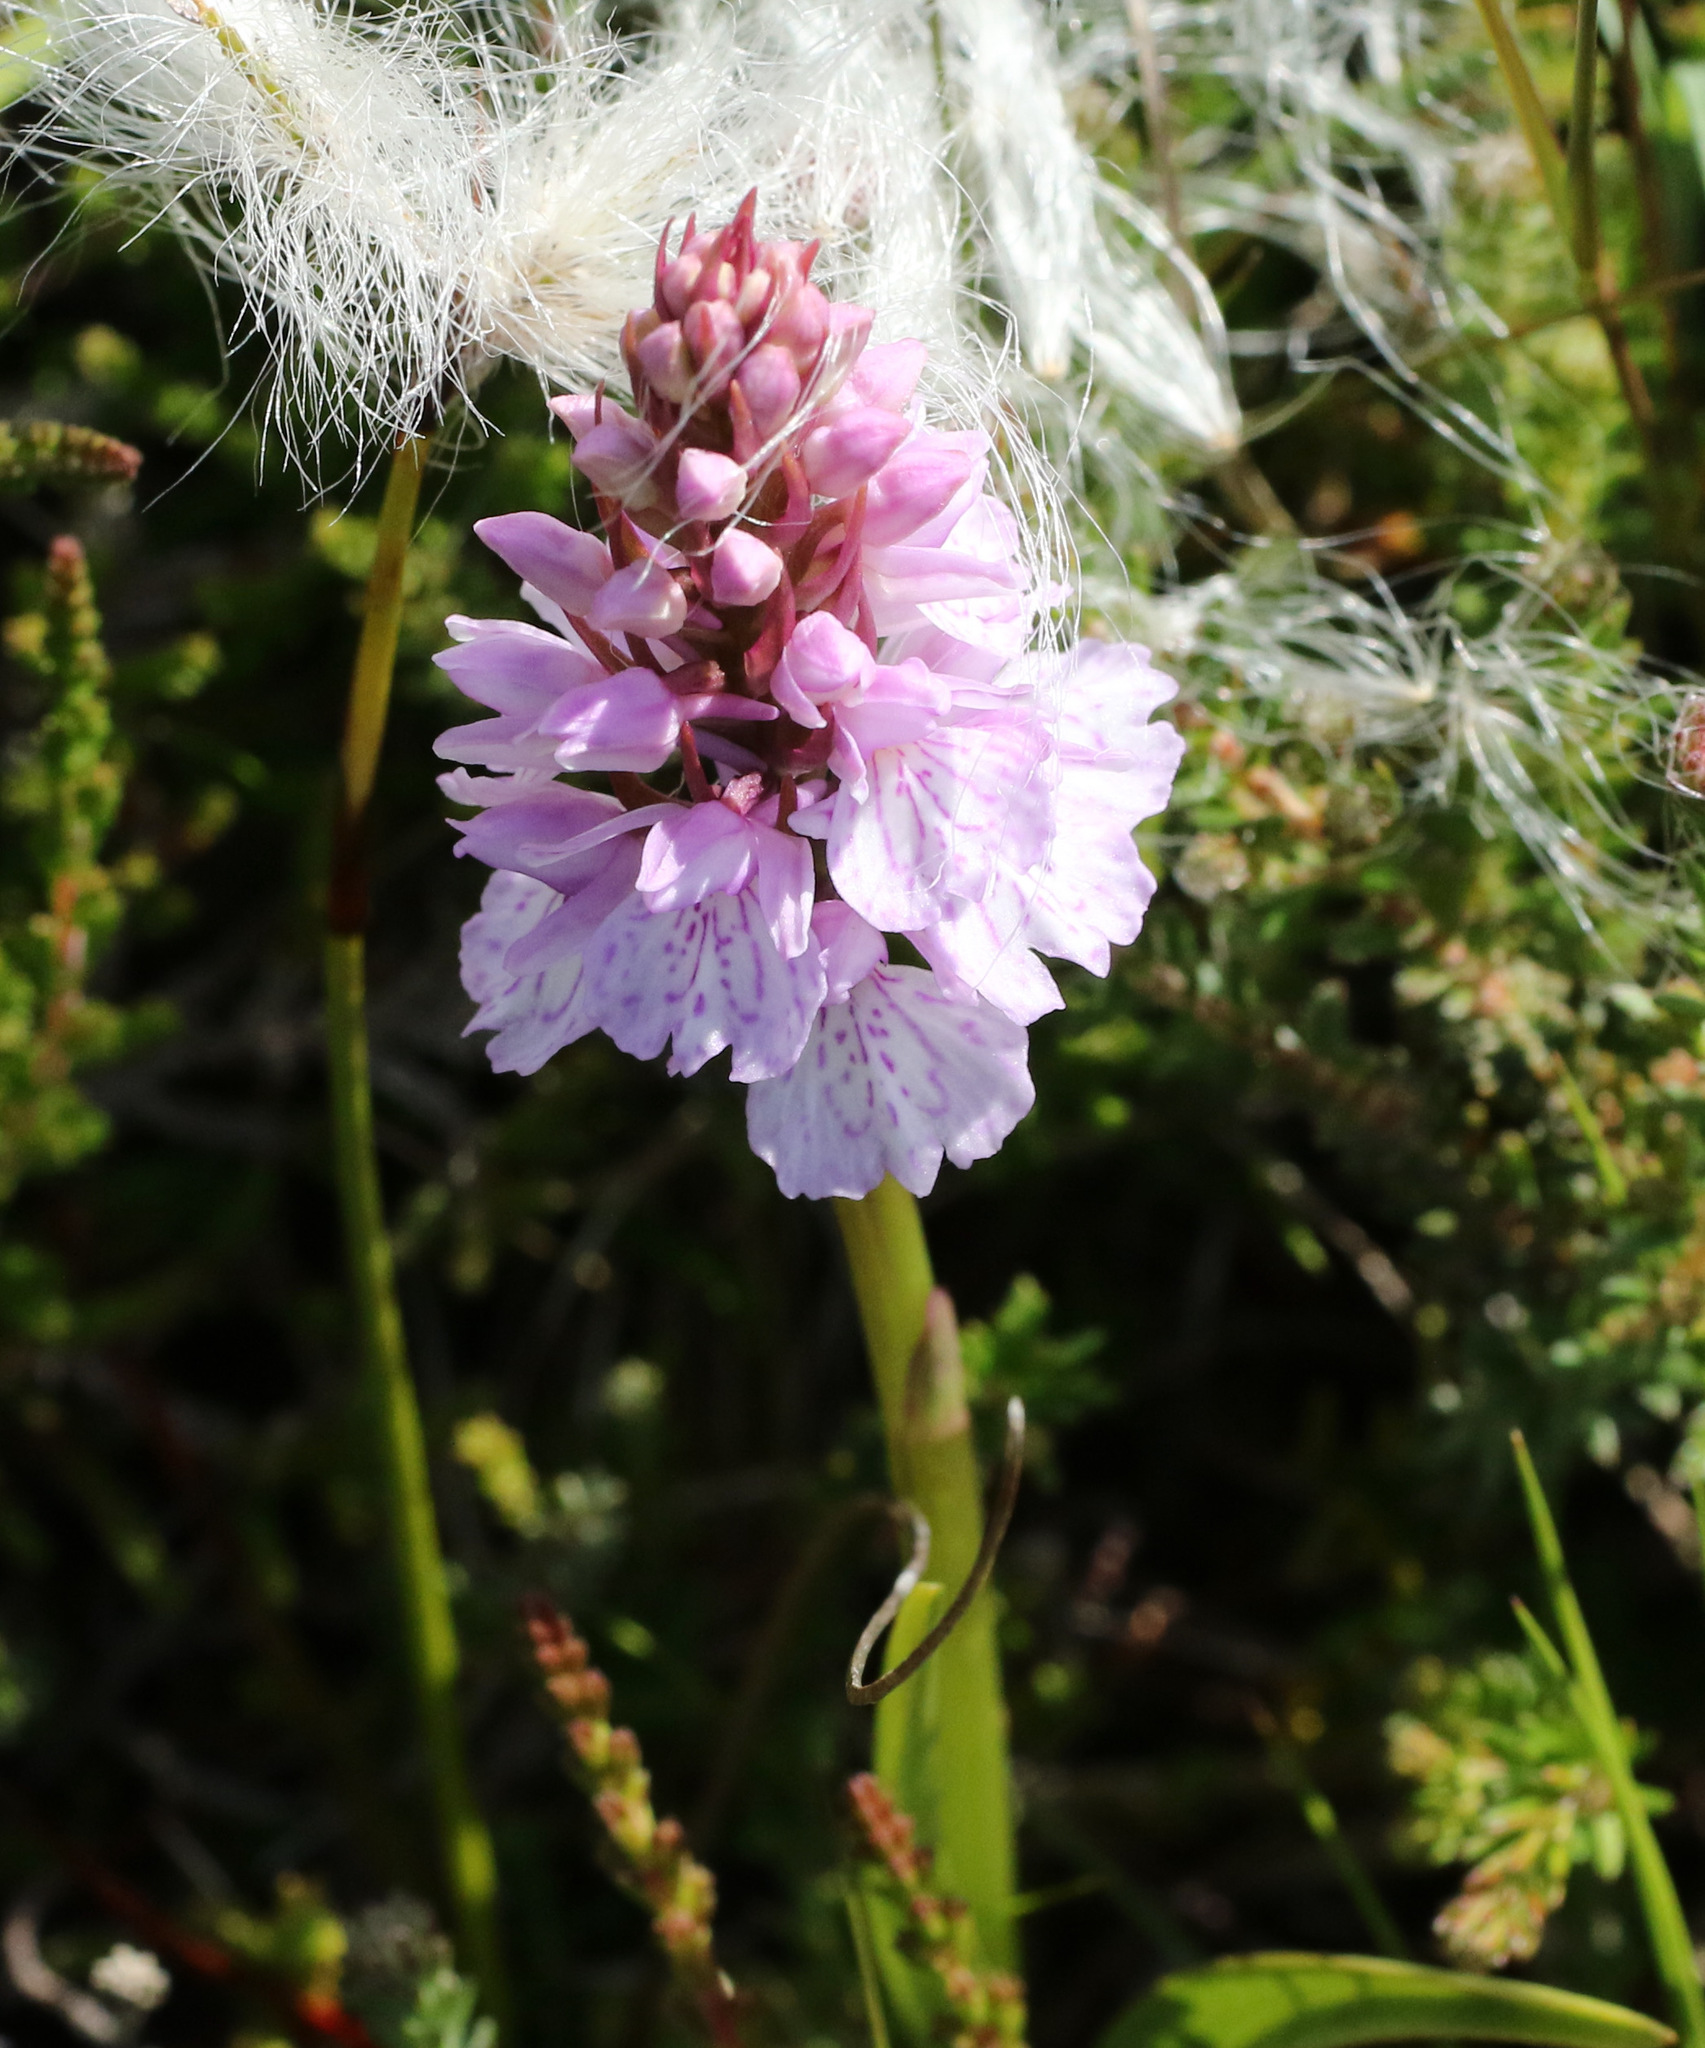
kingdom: Plantae
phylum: Tracheophyta
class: Liliopsida
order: Asparagales
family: Orchidaceae
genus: Dactylorhiza
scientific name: Dactylorhiza maculata
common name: Heath spotted-orchid
